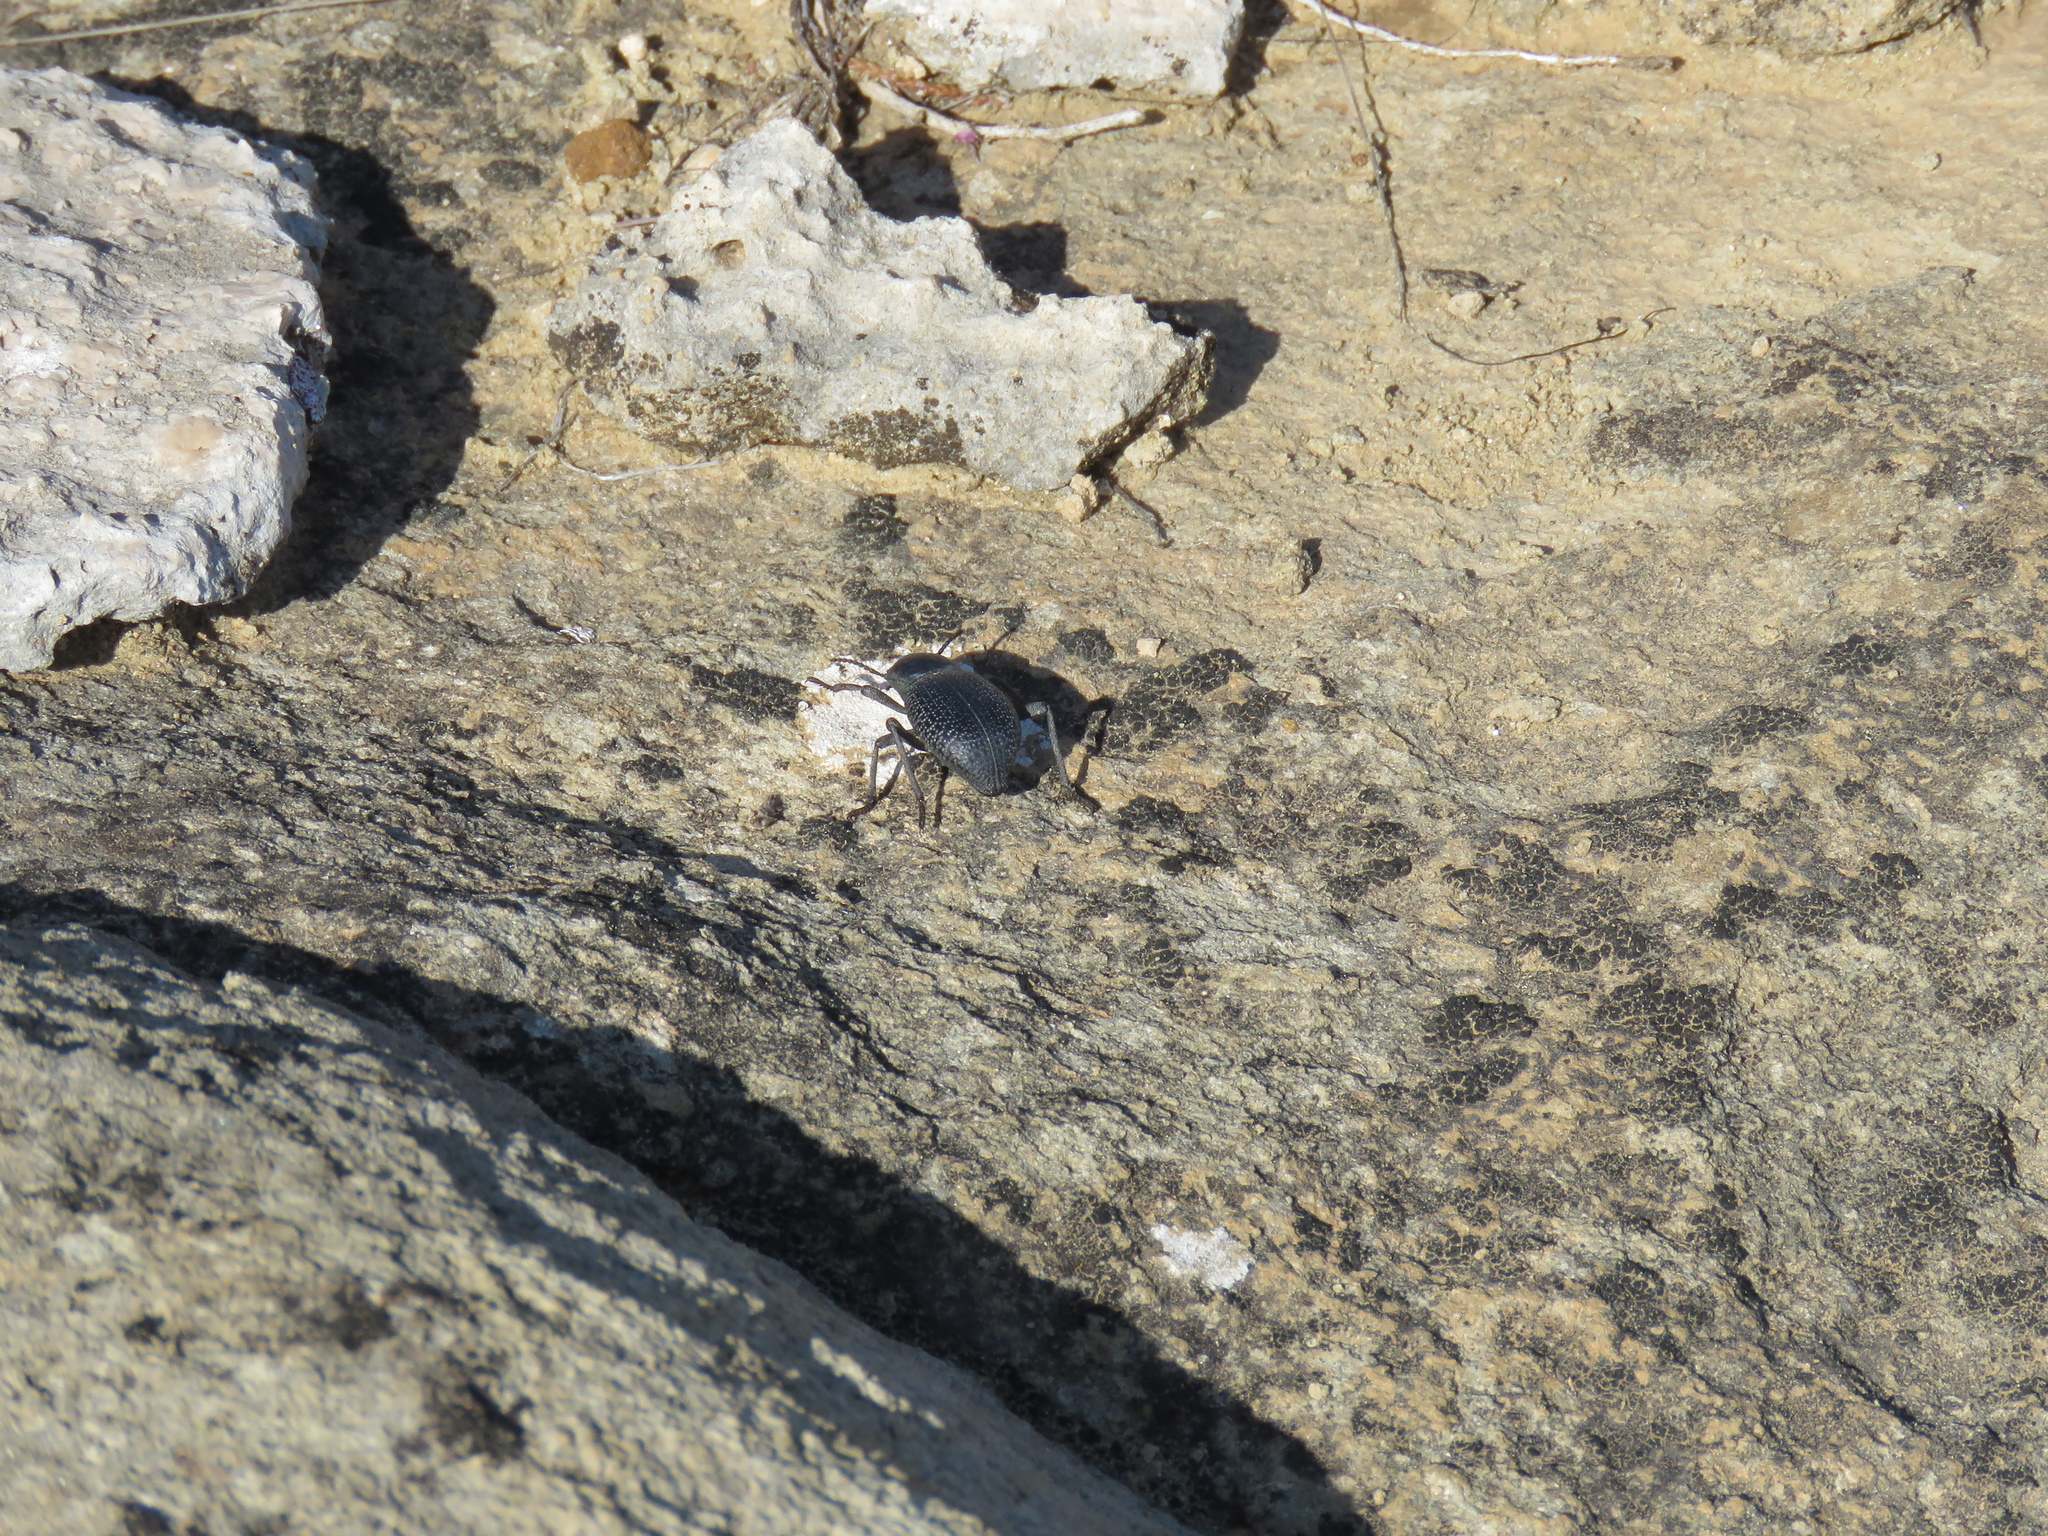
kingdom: Animalia
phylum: Arthropoda
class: Insecta
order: Coleoptera
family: Tenebrionidae
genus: Cryptoglossa
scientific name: Cryptoglossa infausta
